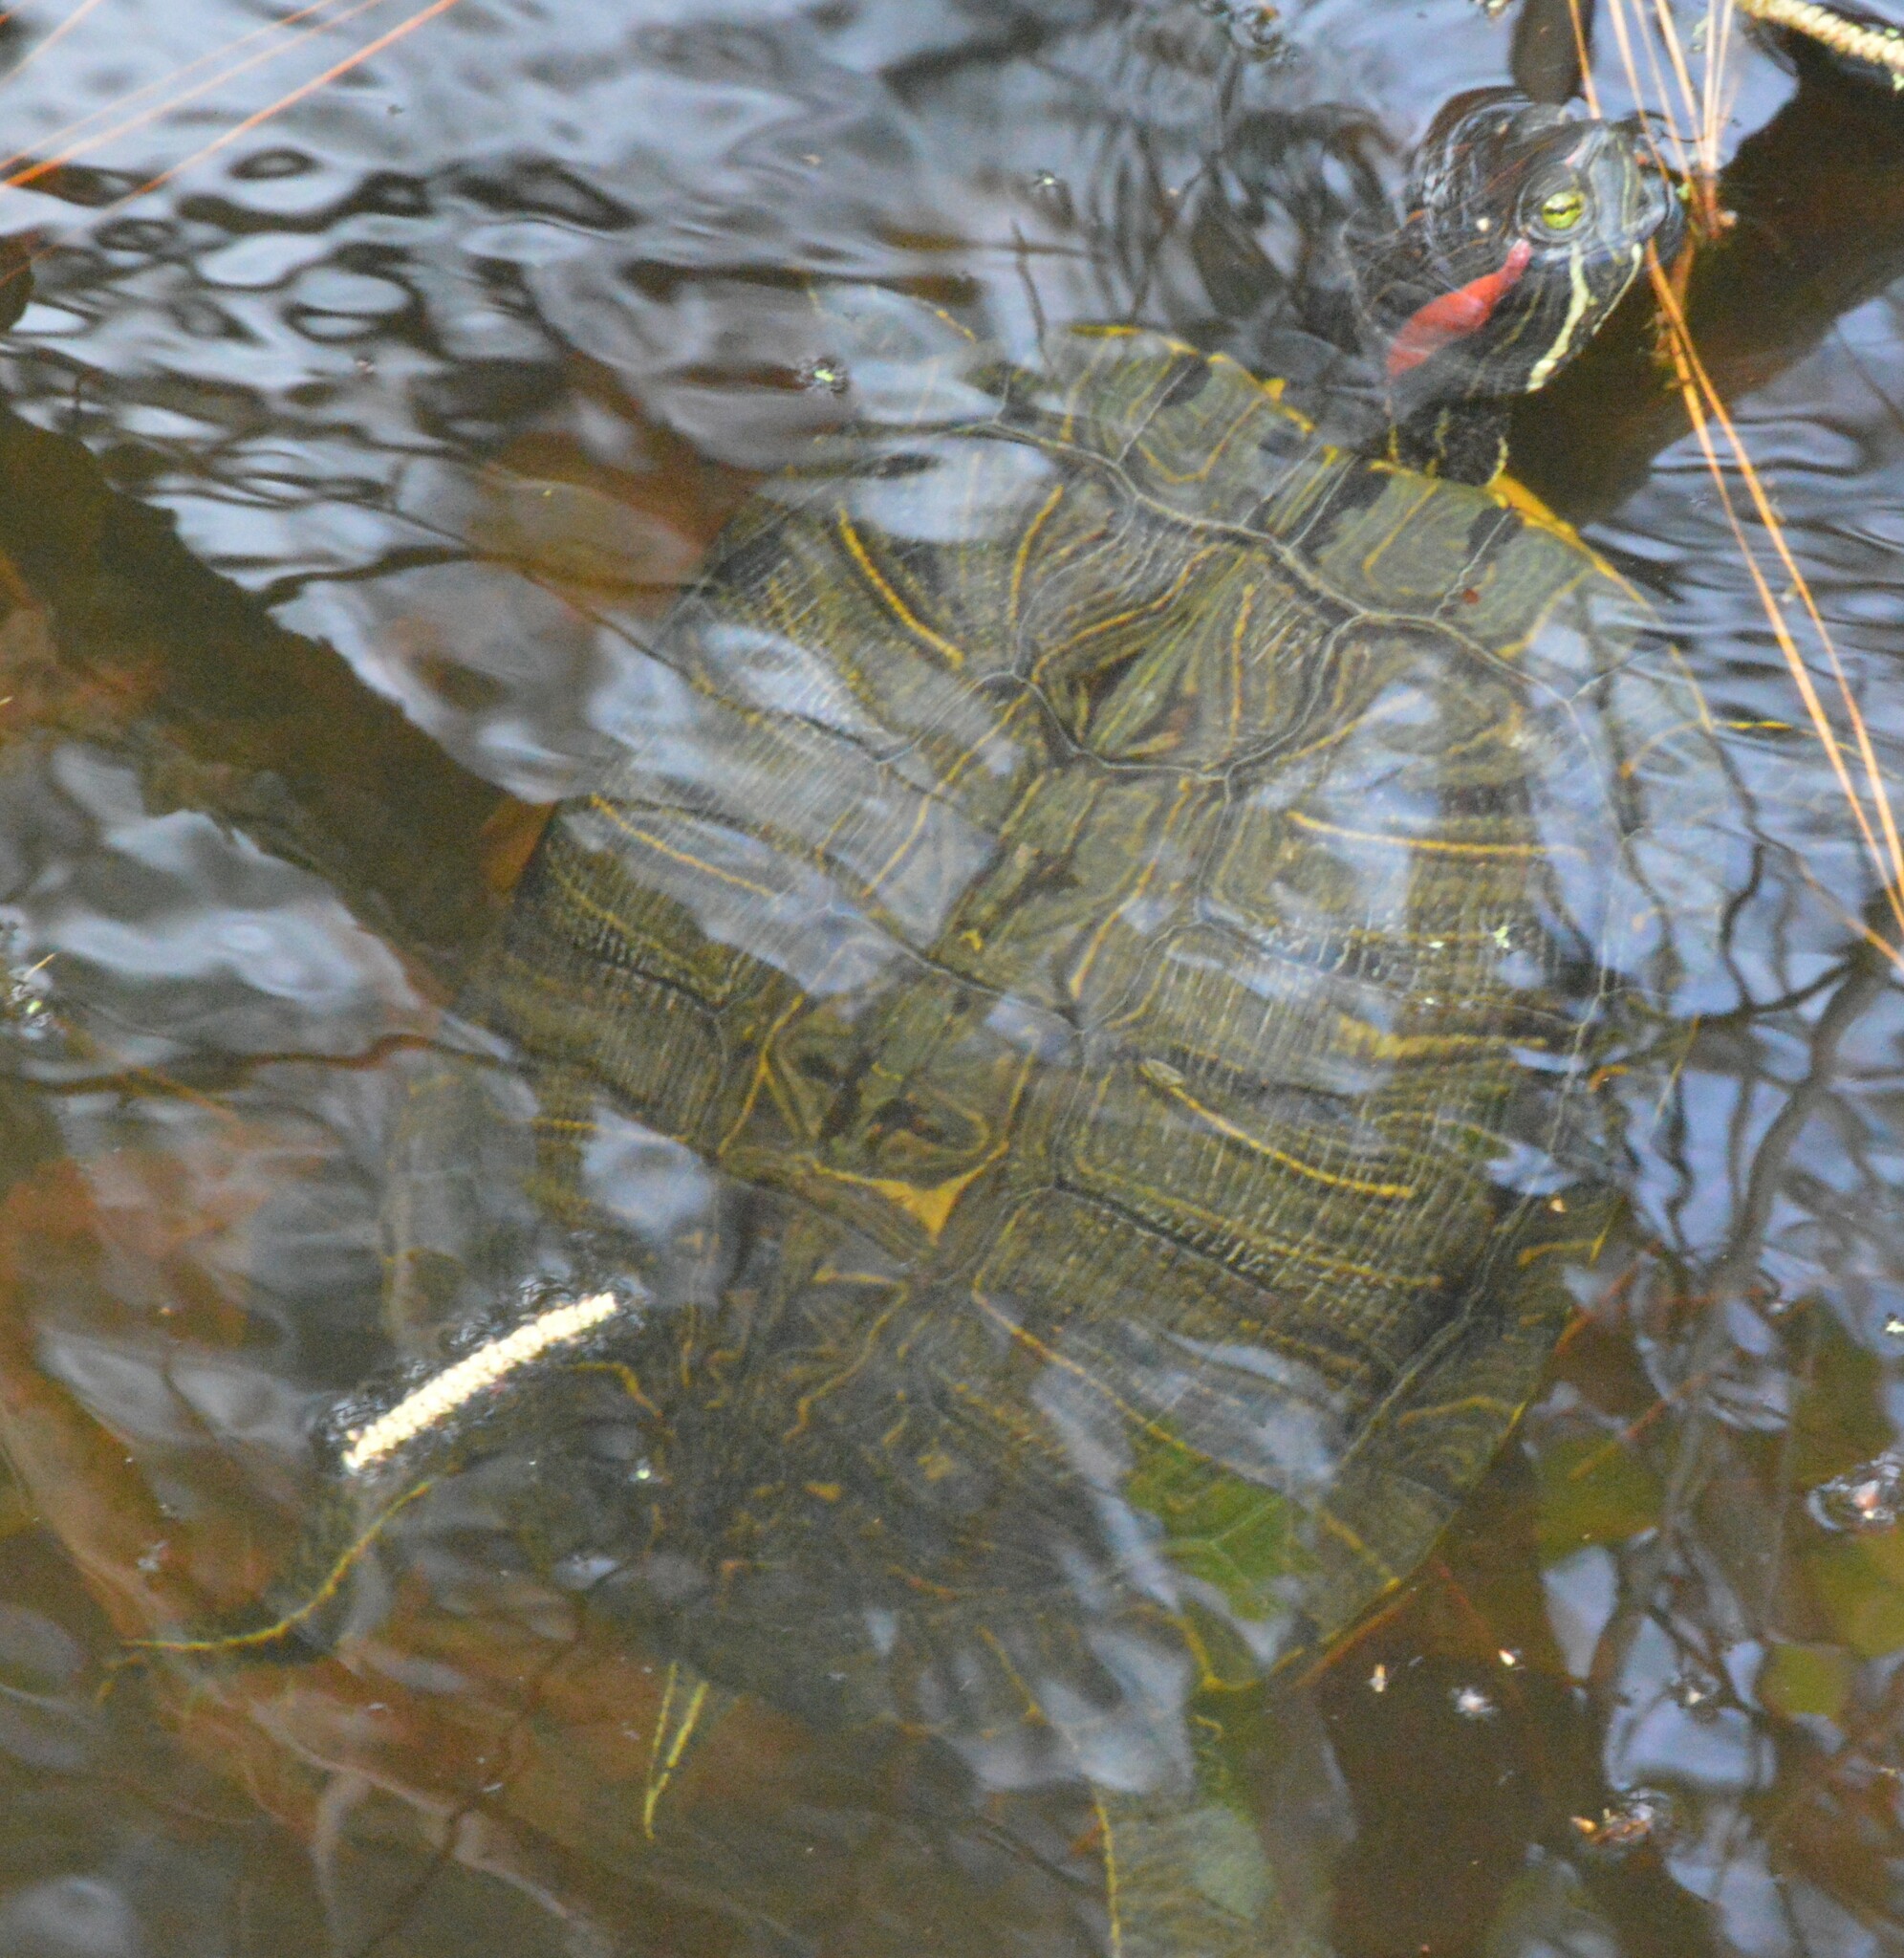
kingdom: Animalia
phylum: Chordata
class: Testudines
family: Emydidae
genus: Trachemys
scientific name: Trachemys scripta
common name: Slider
